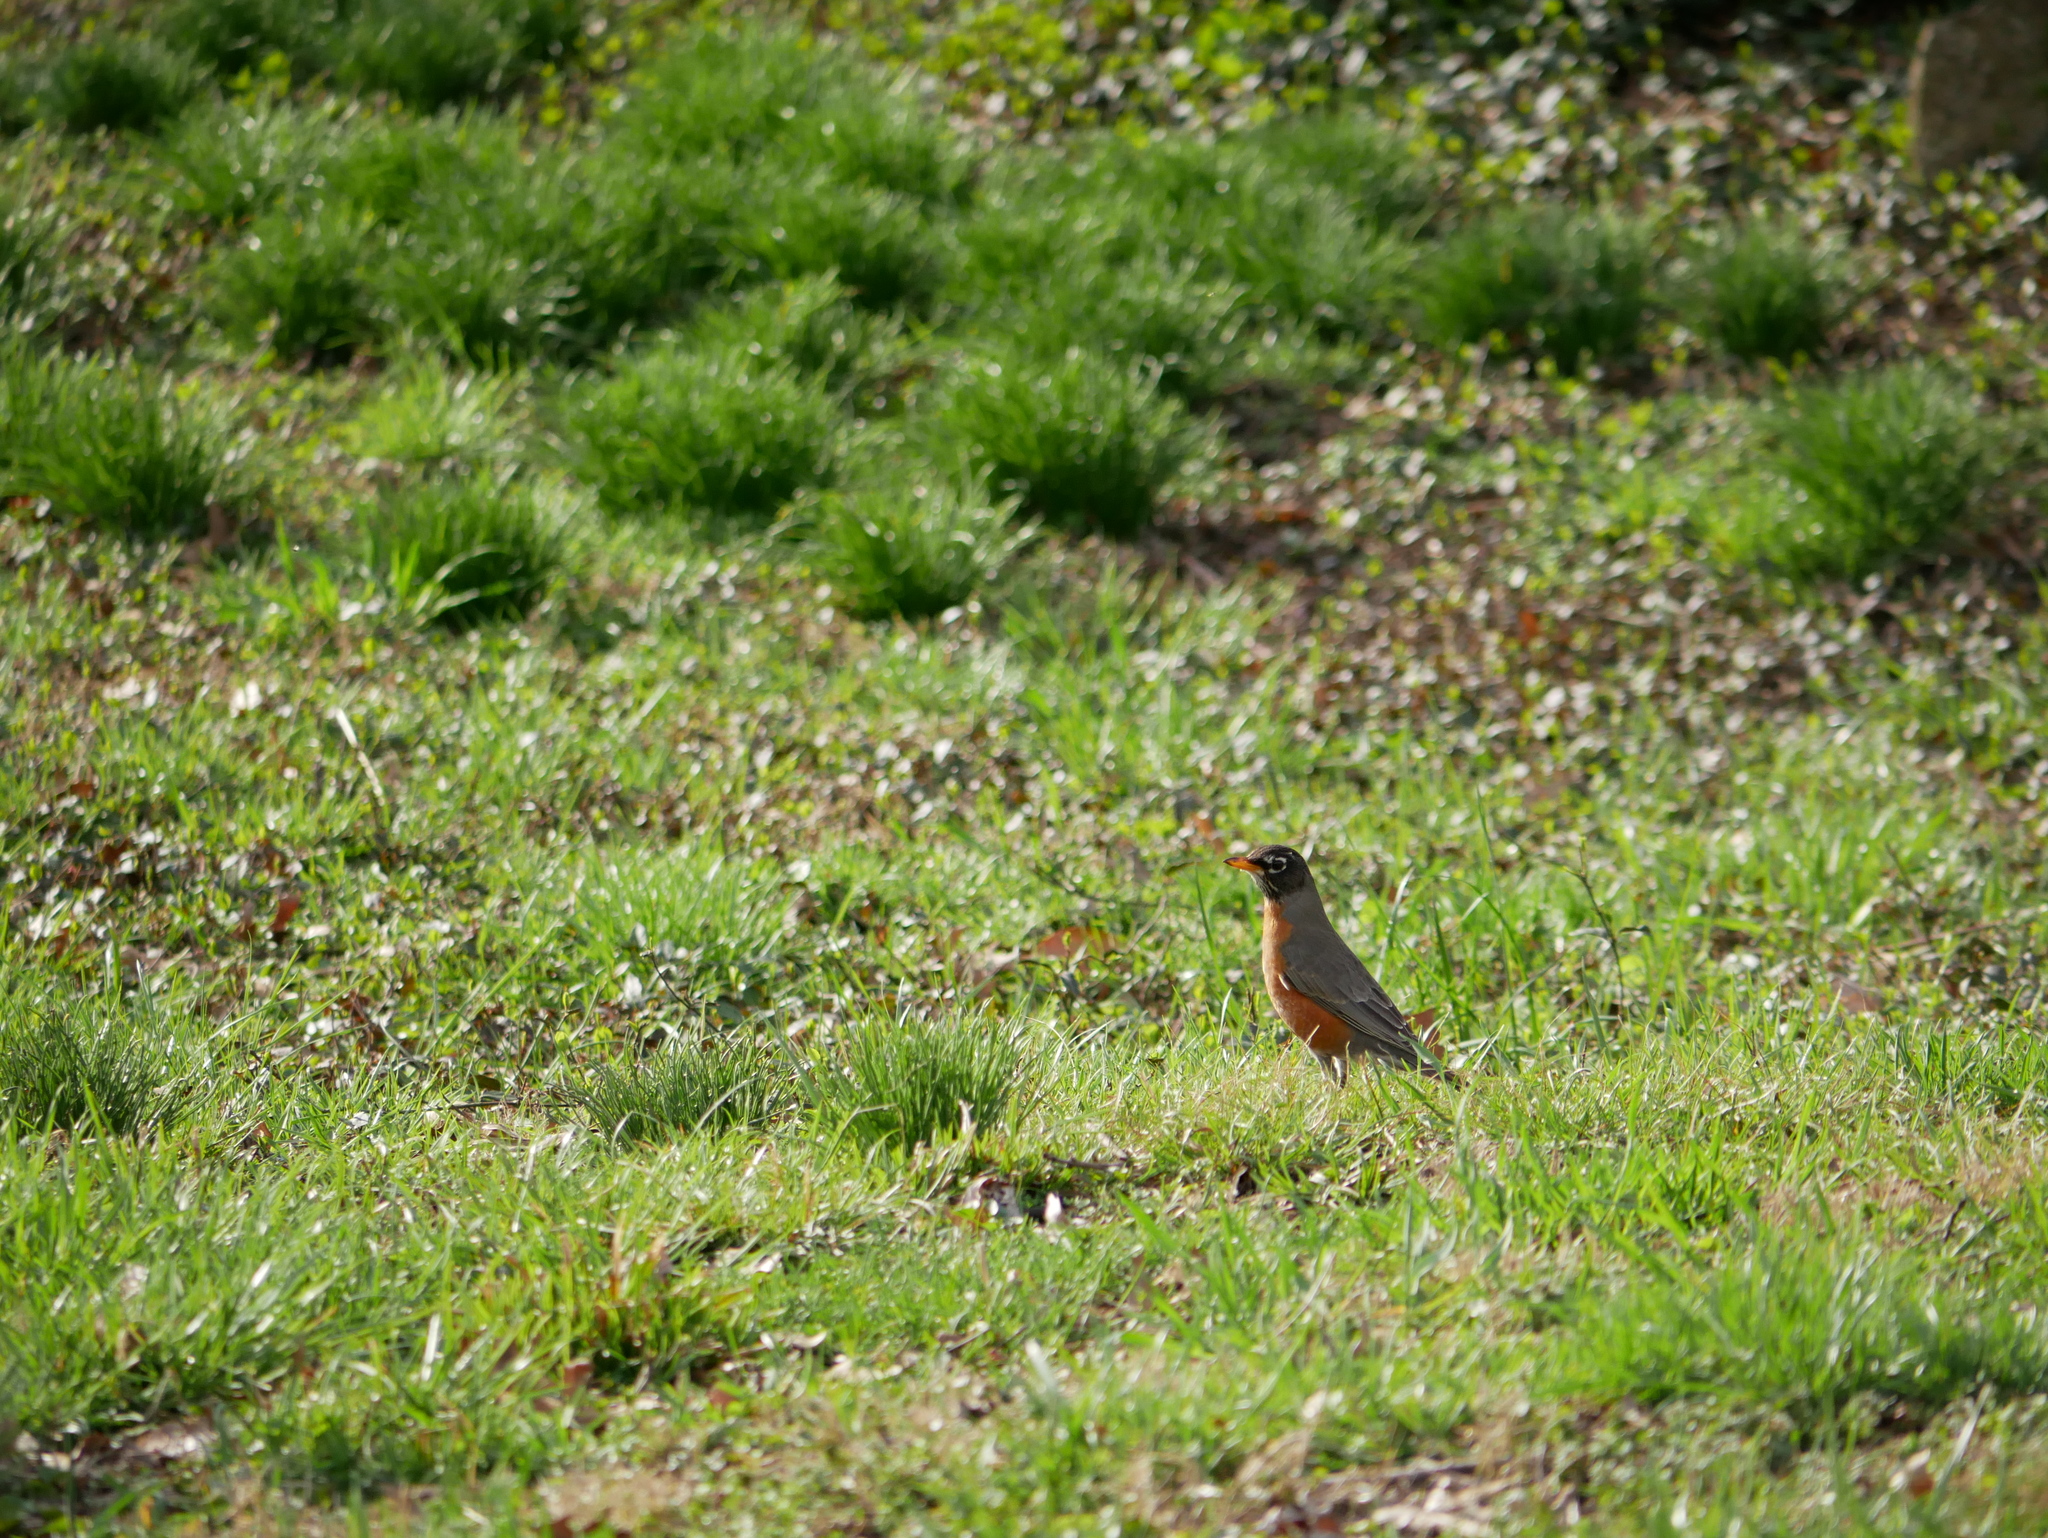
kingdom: Animalia
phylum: Chordata
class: Aves
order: Passeriformes
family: Turdidae
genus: Turdus
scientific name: Turdus migratorius
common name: American robin
